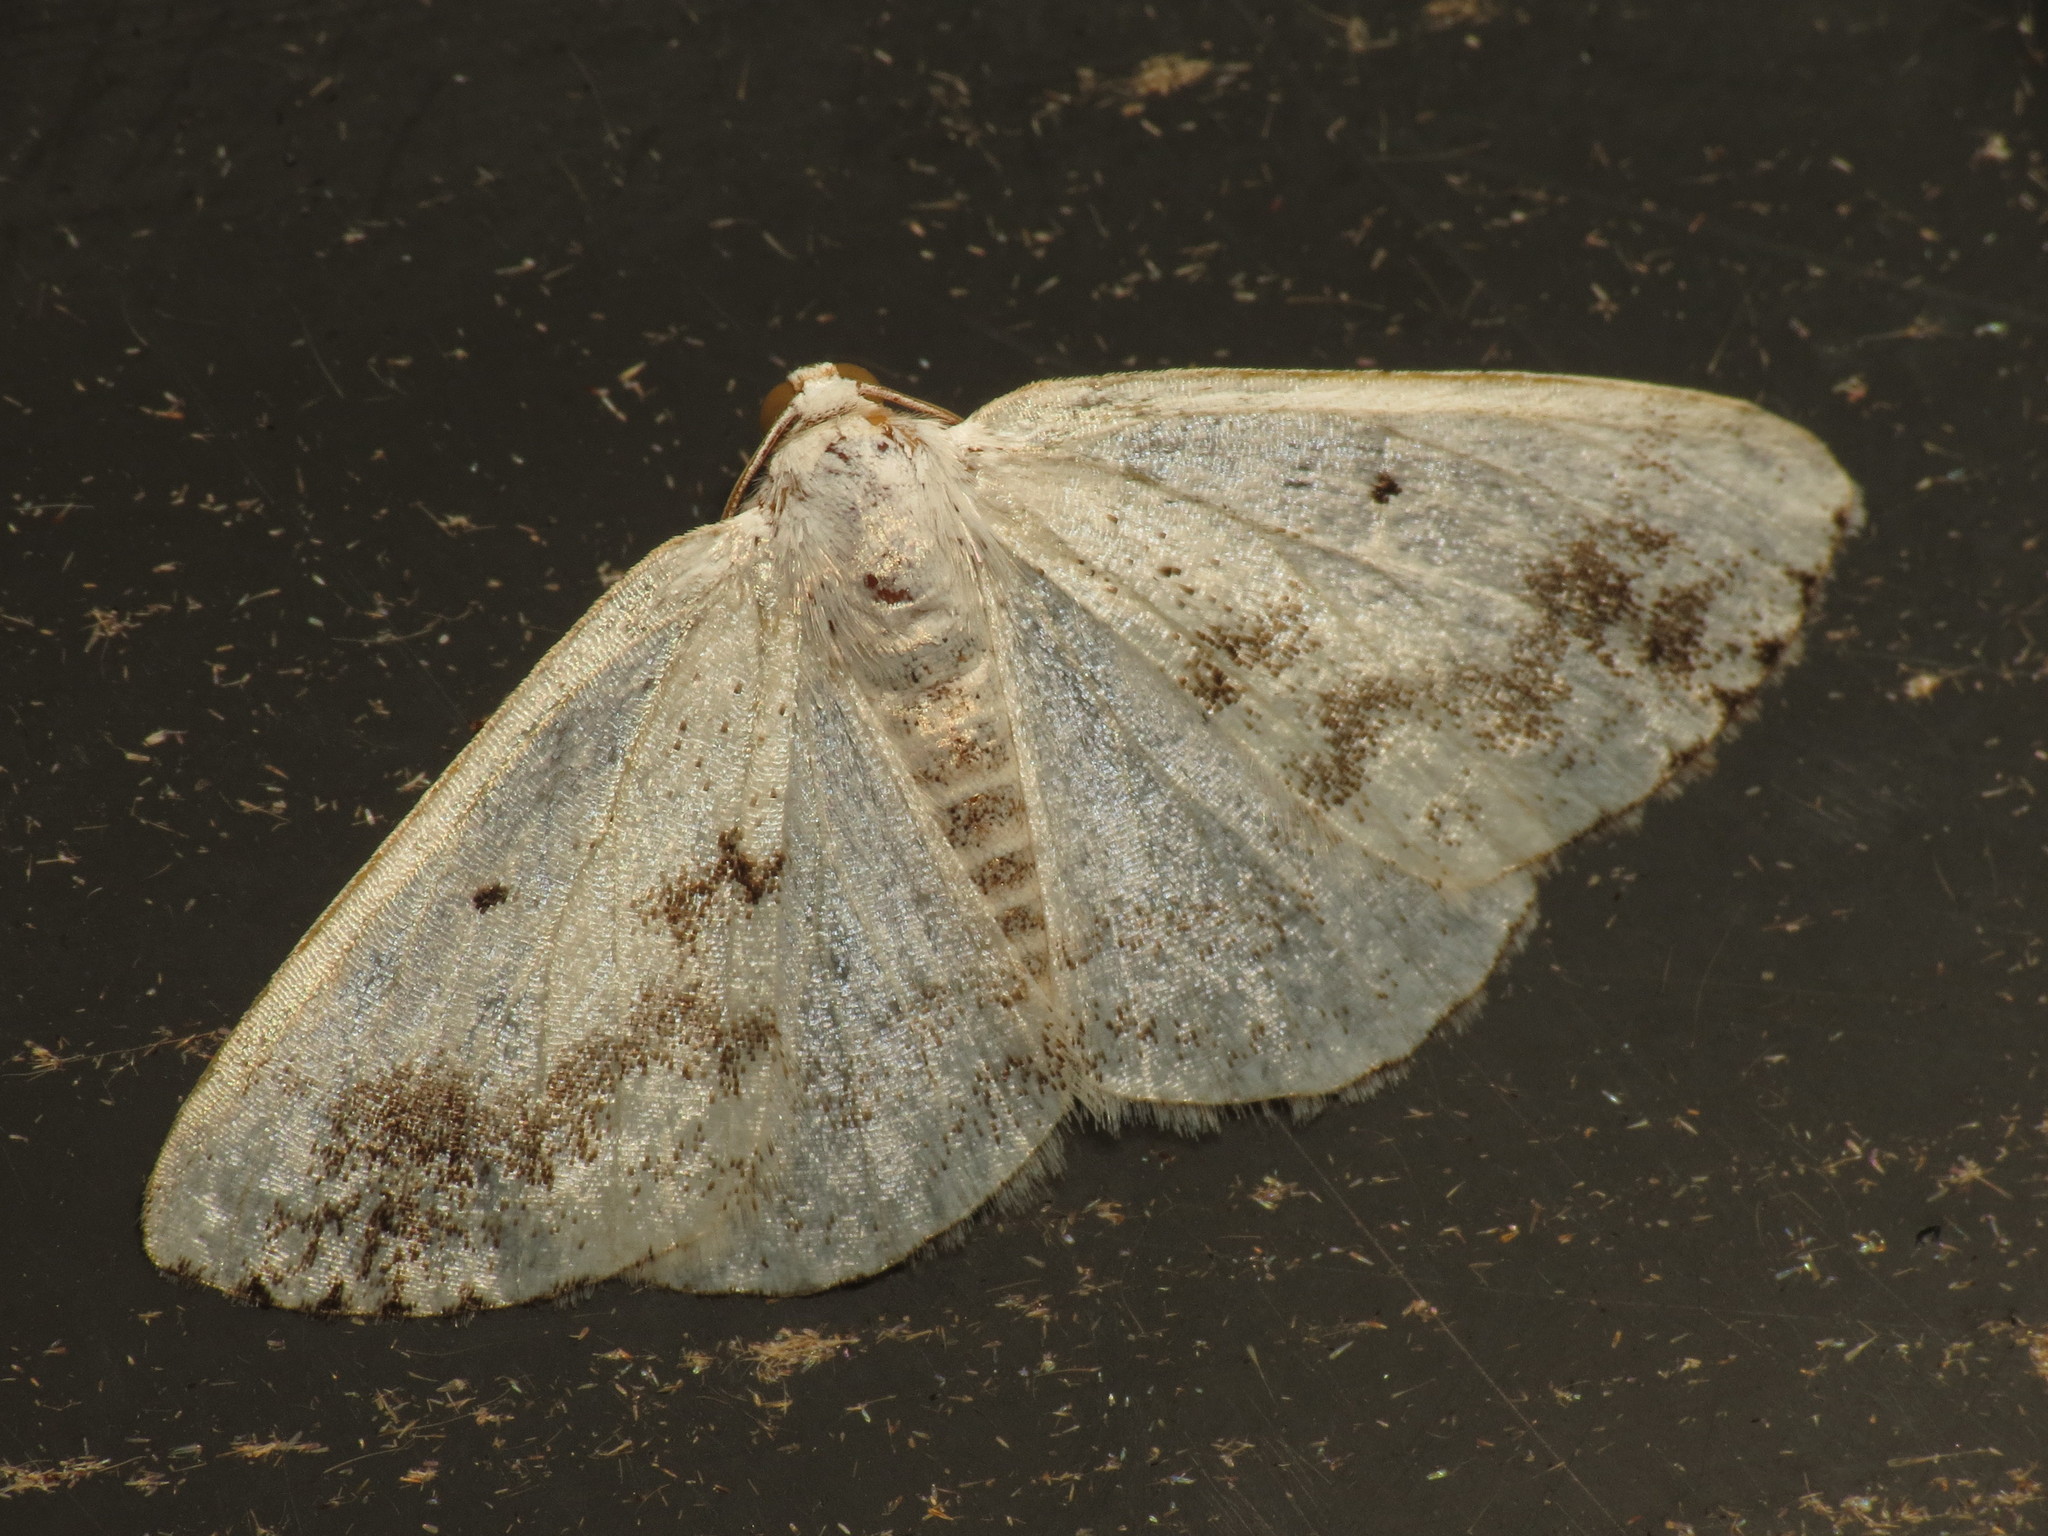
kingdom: Animalia
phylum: Arthropoda
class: Insecta
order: Lepidoptera
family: Geometridae
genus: Lomographa
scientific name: Lomographa temerata
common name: Clouded silver
